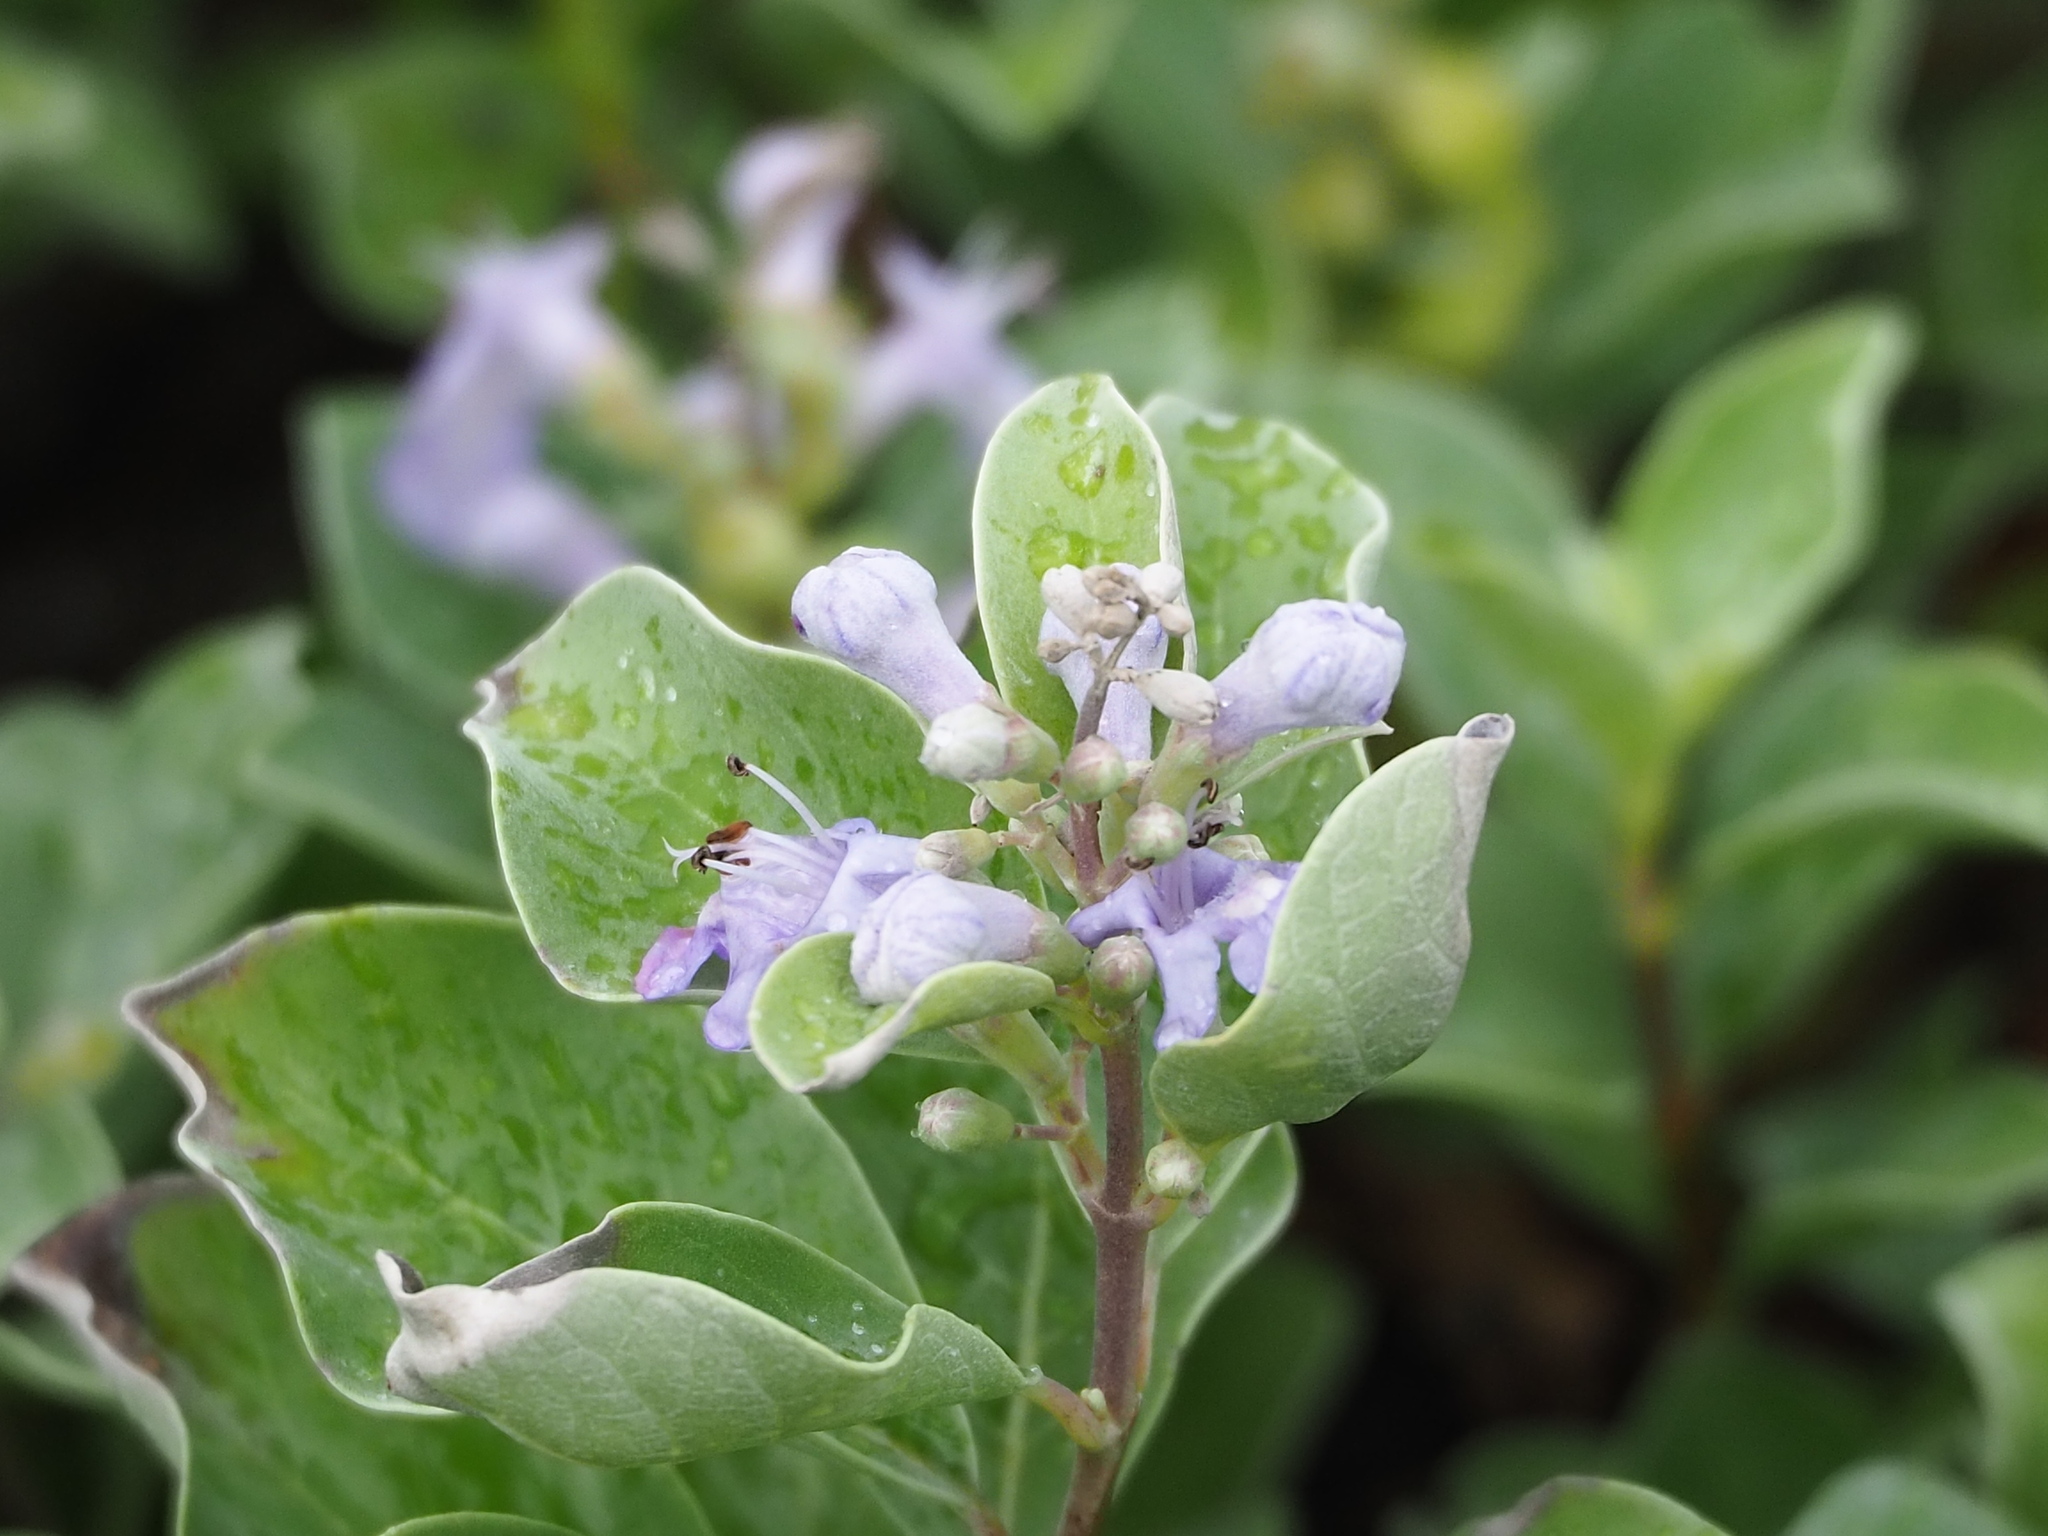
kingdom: Plantae
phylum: Tracheophyta
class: Magnoliopsida
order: Lamiales
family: Lamiaceae
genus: Vitex
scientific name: Vitex rotundifolia
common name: Beach vitex
